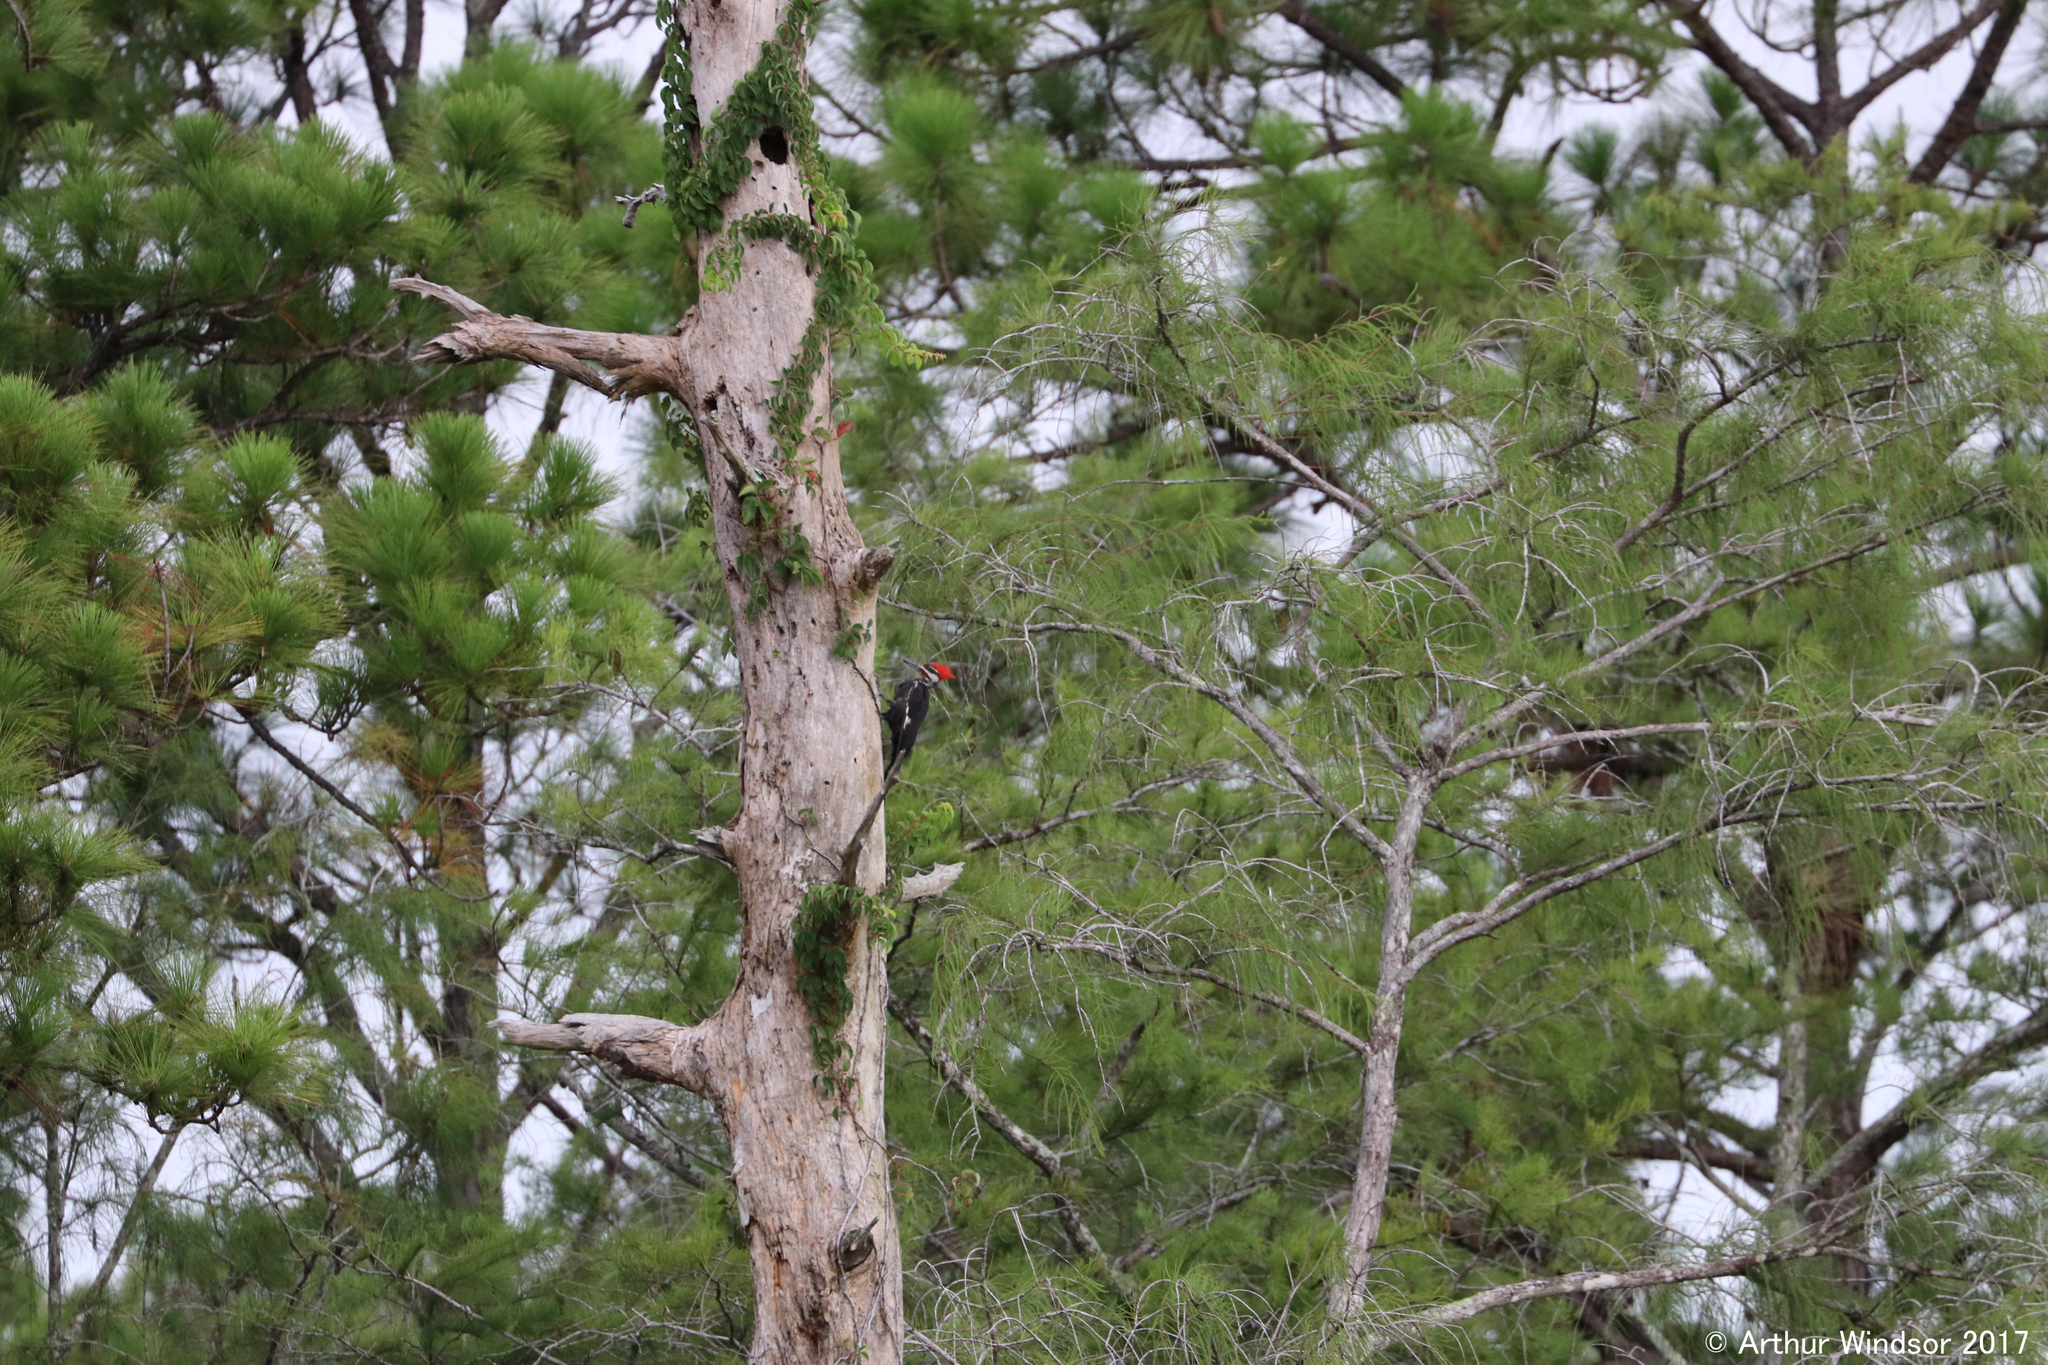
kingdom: Animalia
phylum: Chordata
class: Aves
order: Piciformes
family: Picidae
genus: Dryocopus
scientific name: Dryocopus pileatus
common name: Pileated woodpecker
